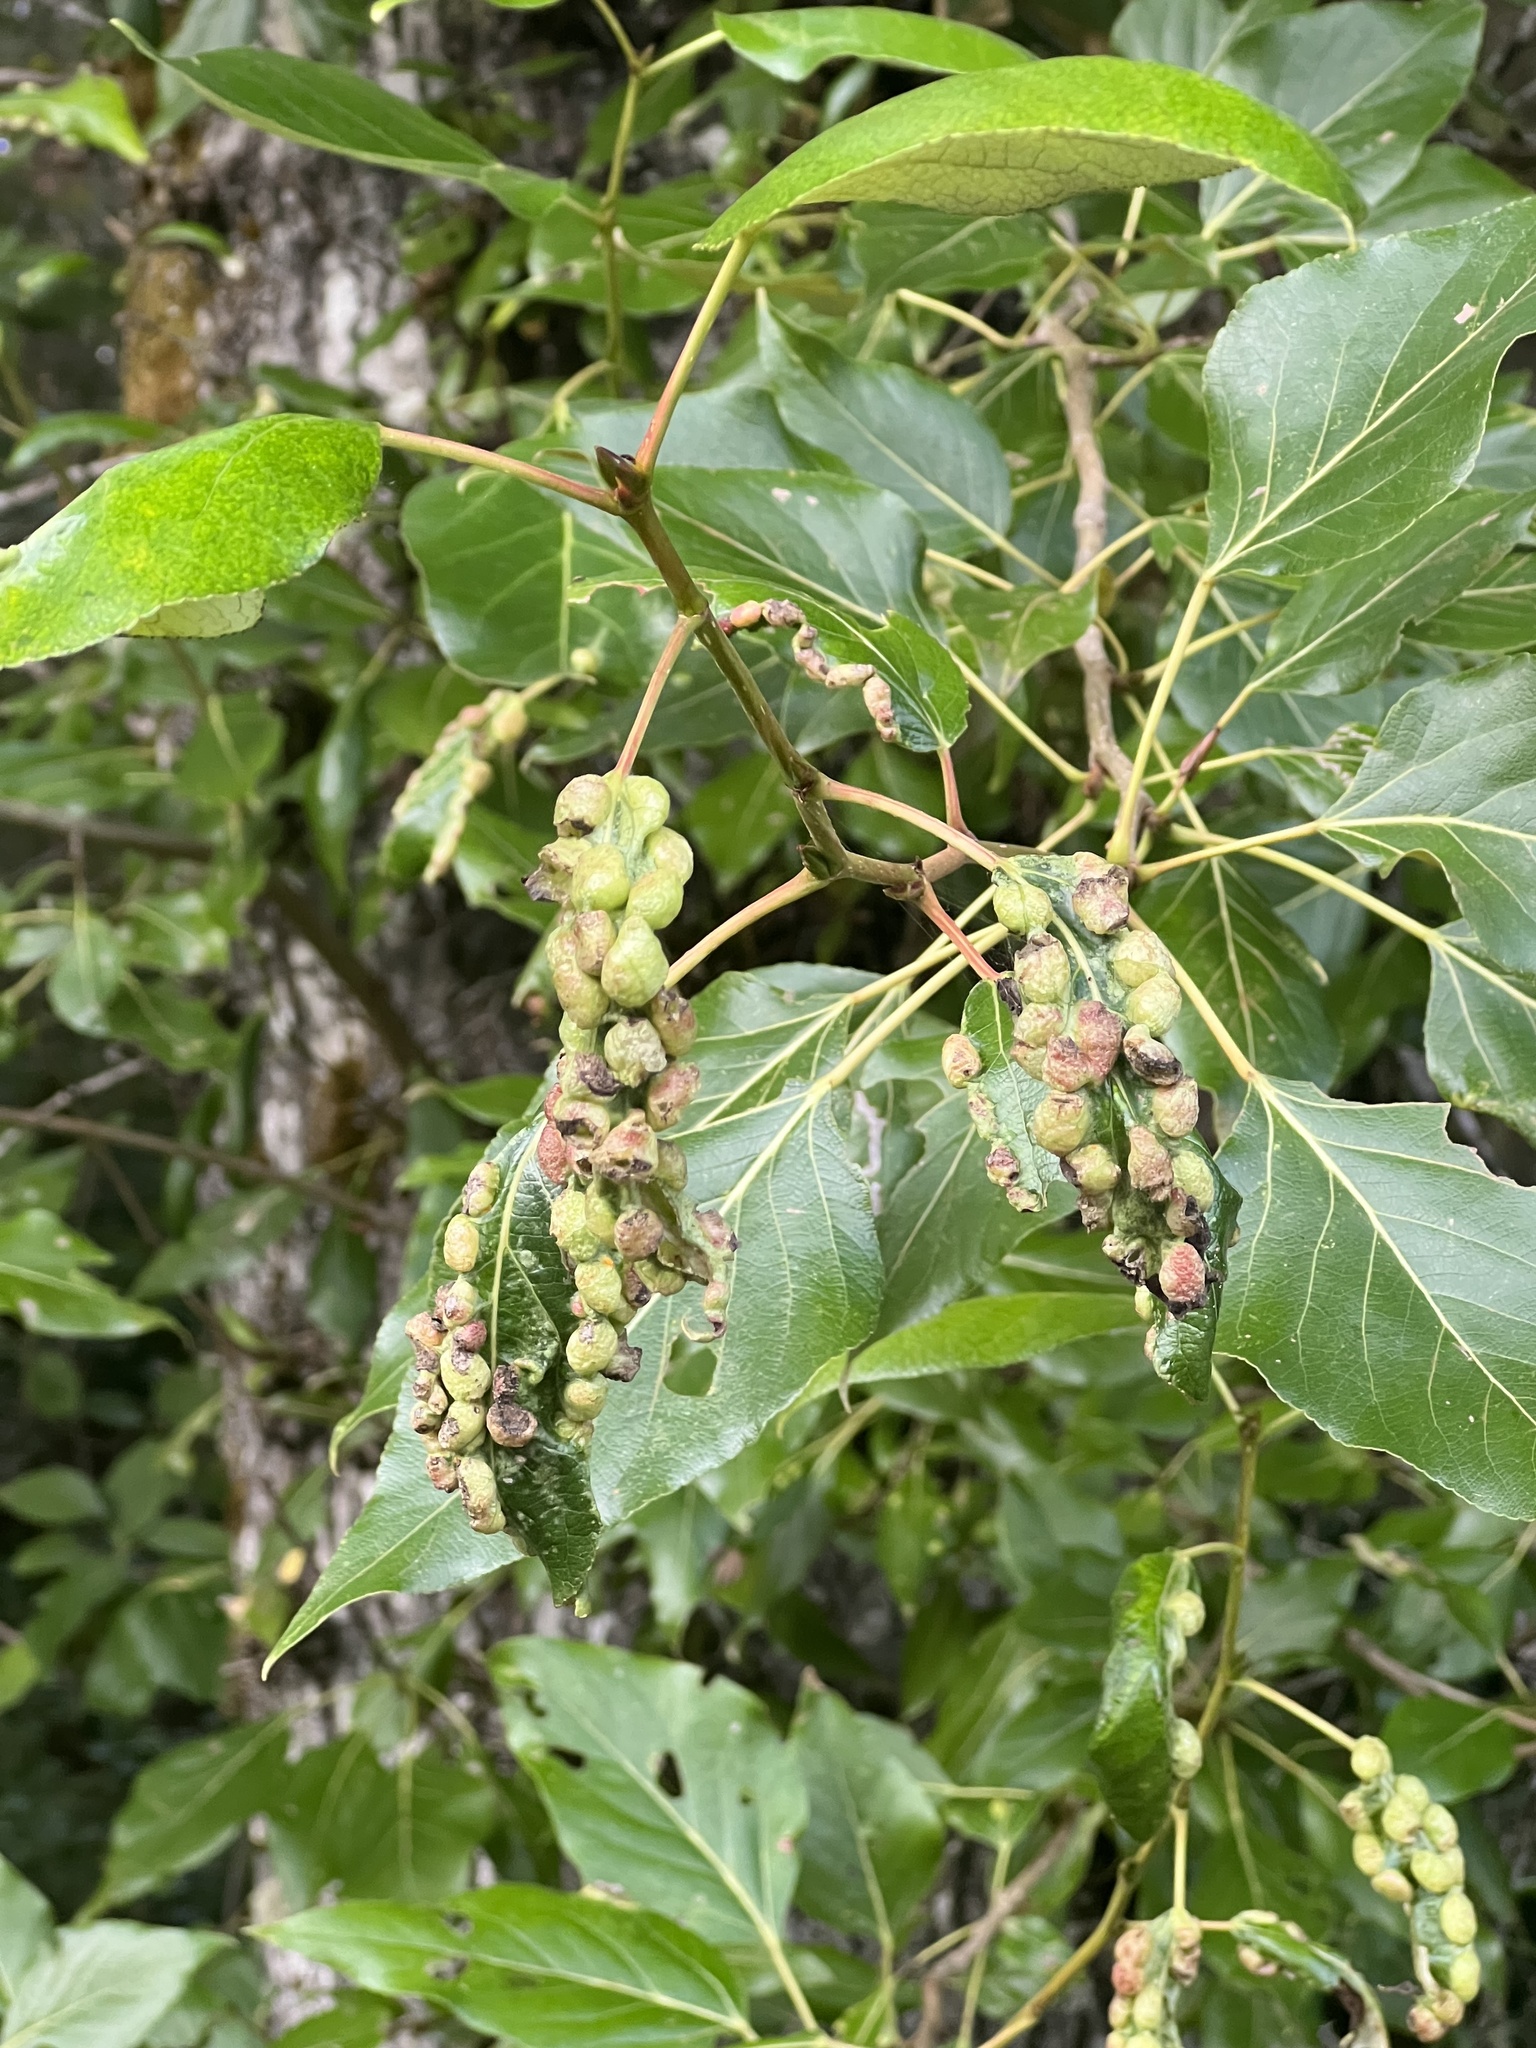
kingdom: Animalia
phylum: Arthropoda
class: Insecta
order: Hemiptera
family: Aphididae
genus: Thecabius
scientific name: Thecabius populimonilis
